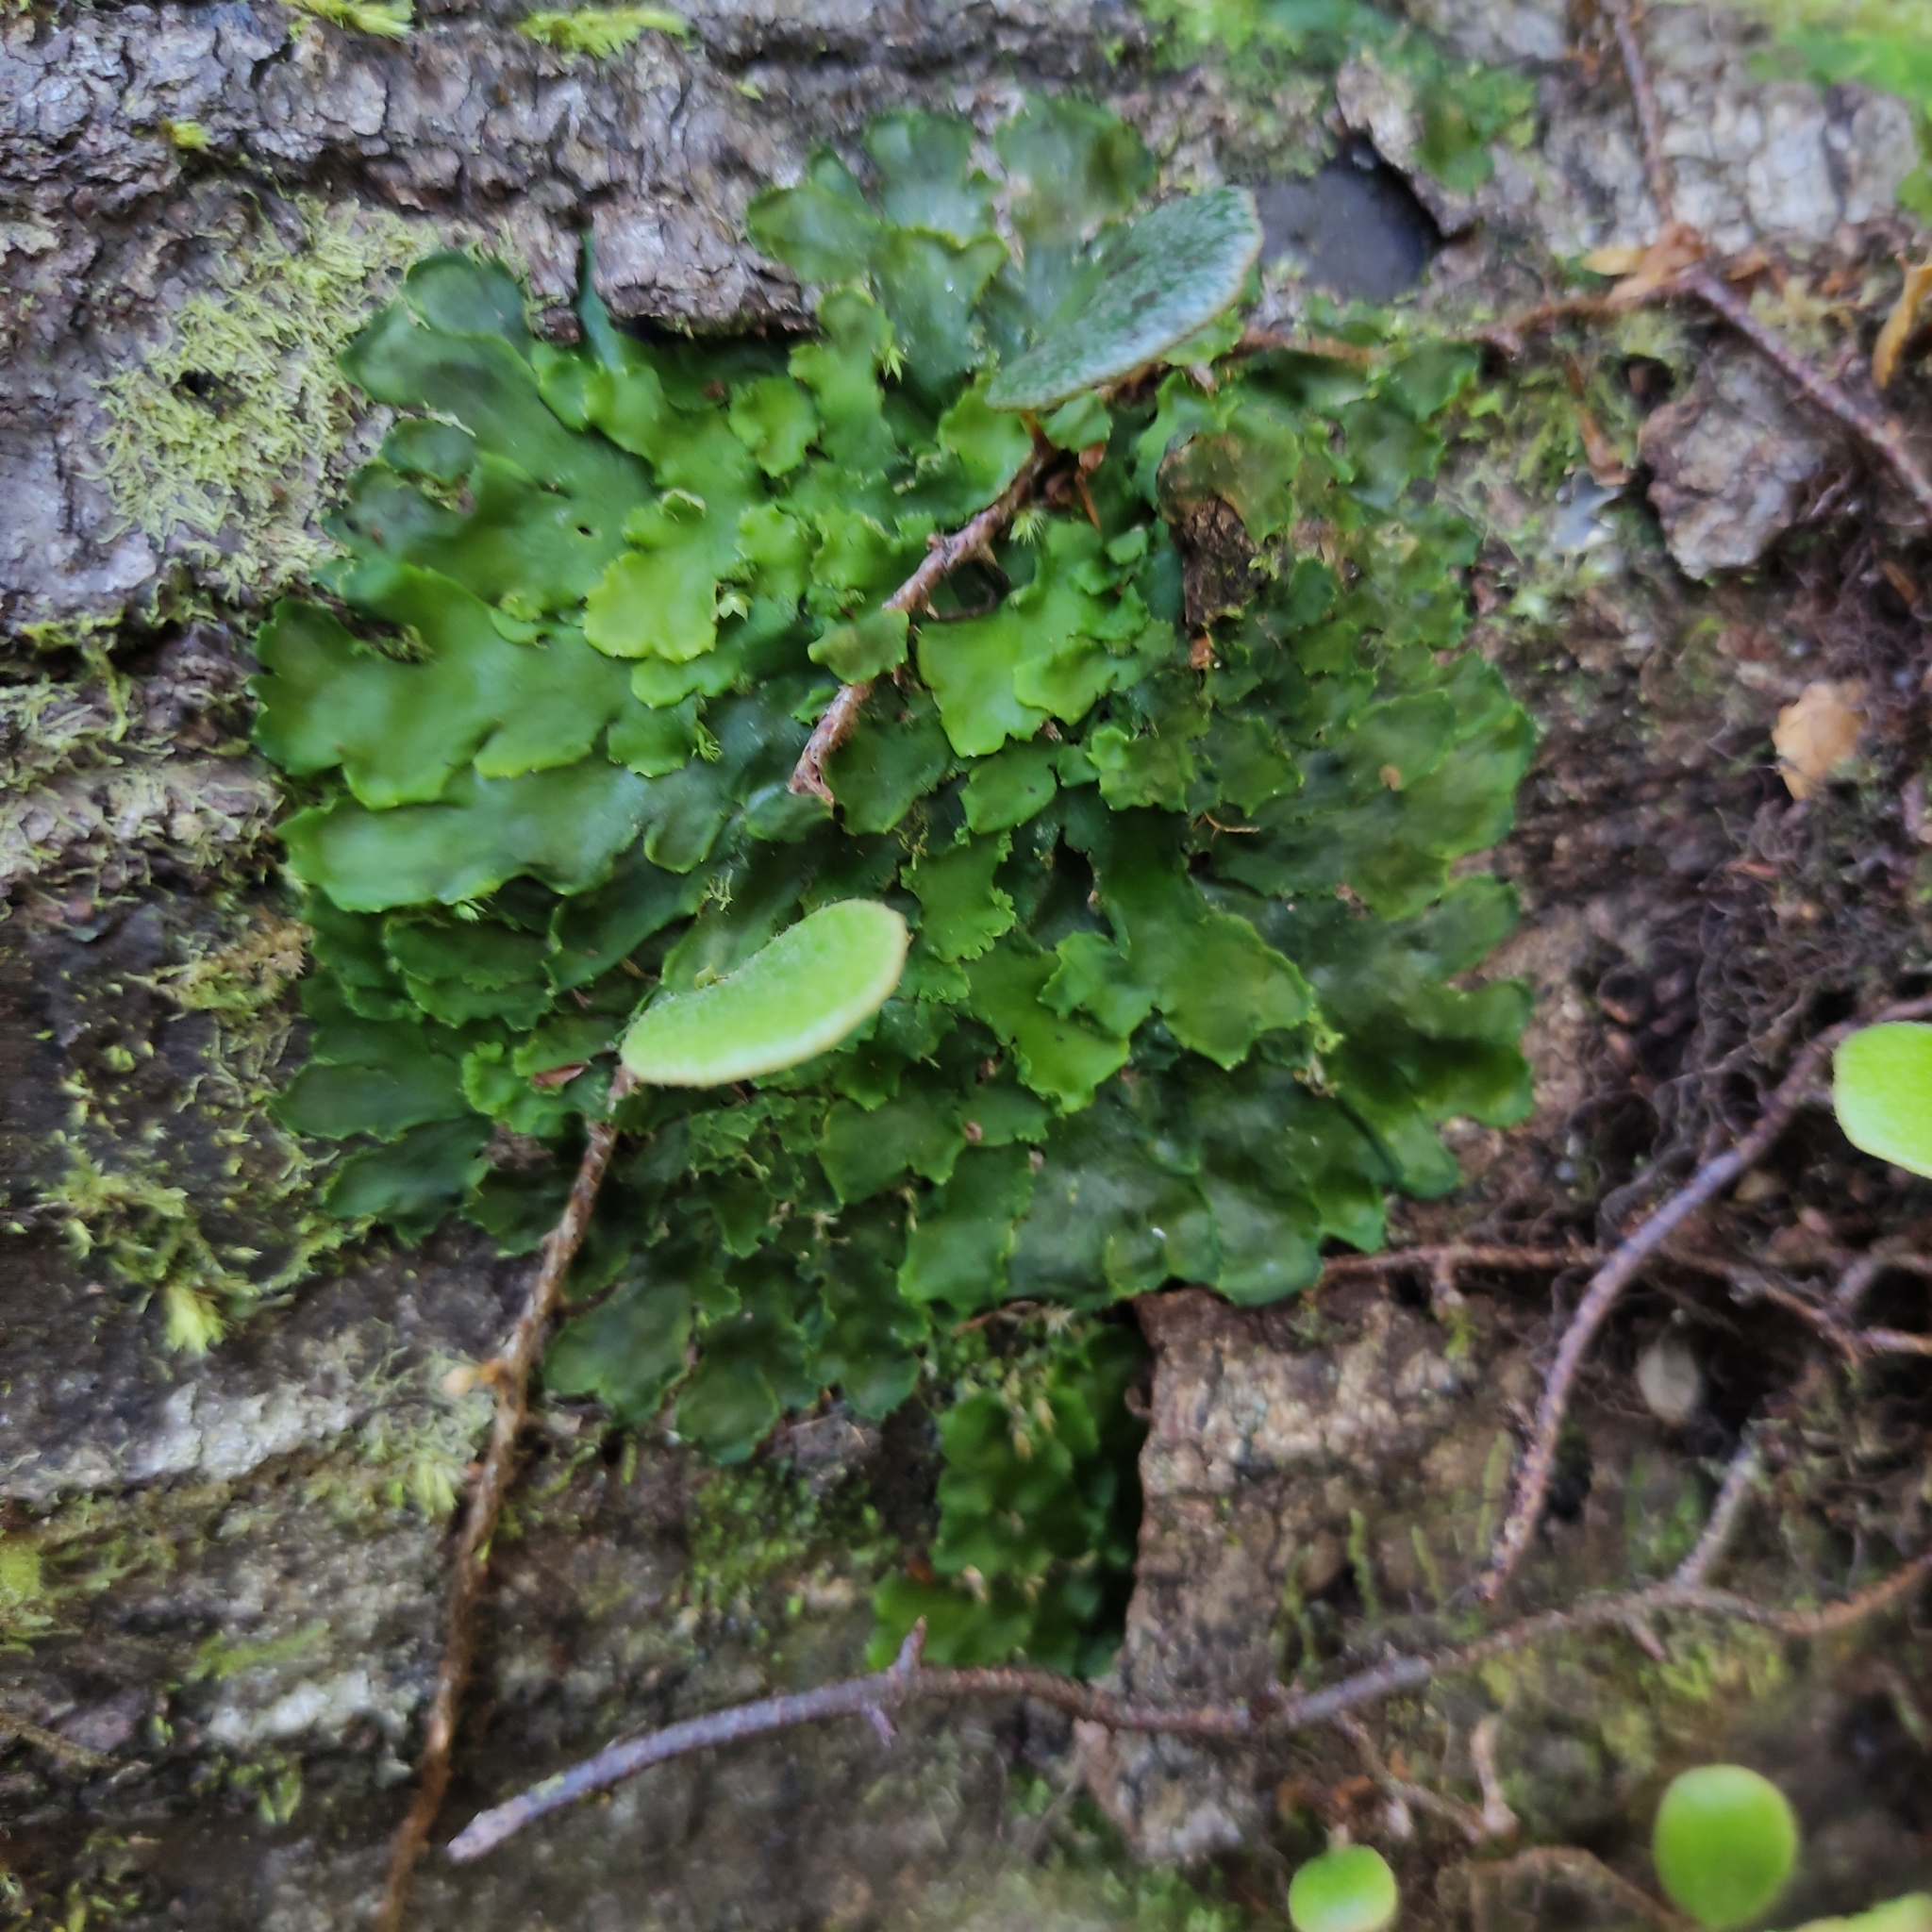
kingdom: Plantae
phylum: Marchantiophyta
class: Marchantiopsida
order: Marchantiales
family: Monocleaceae
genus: Monoclea
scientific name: Monoclea forsteri
